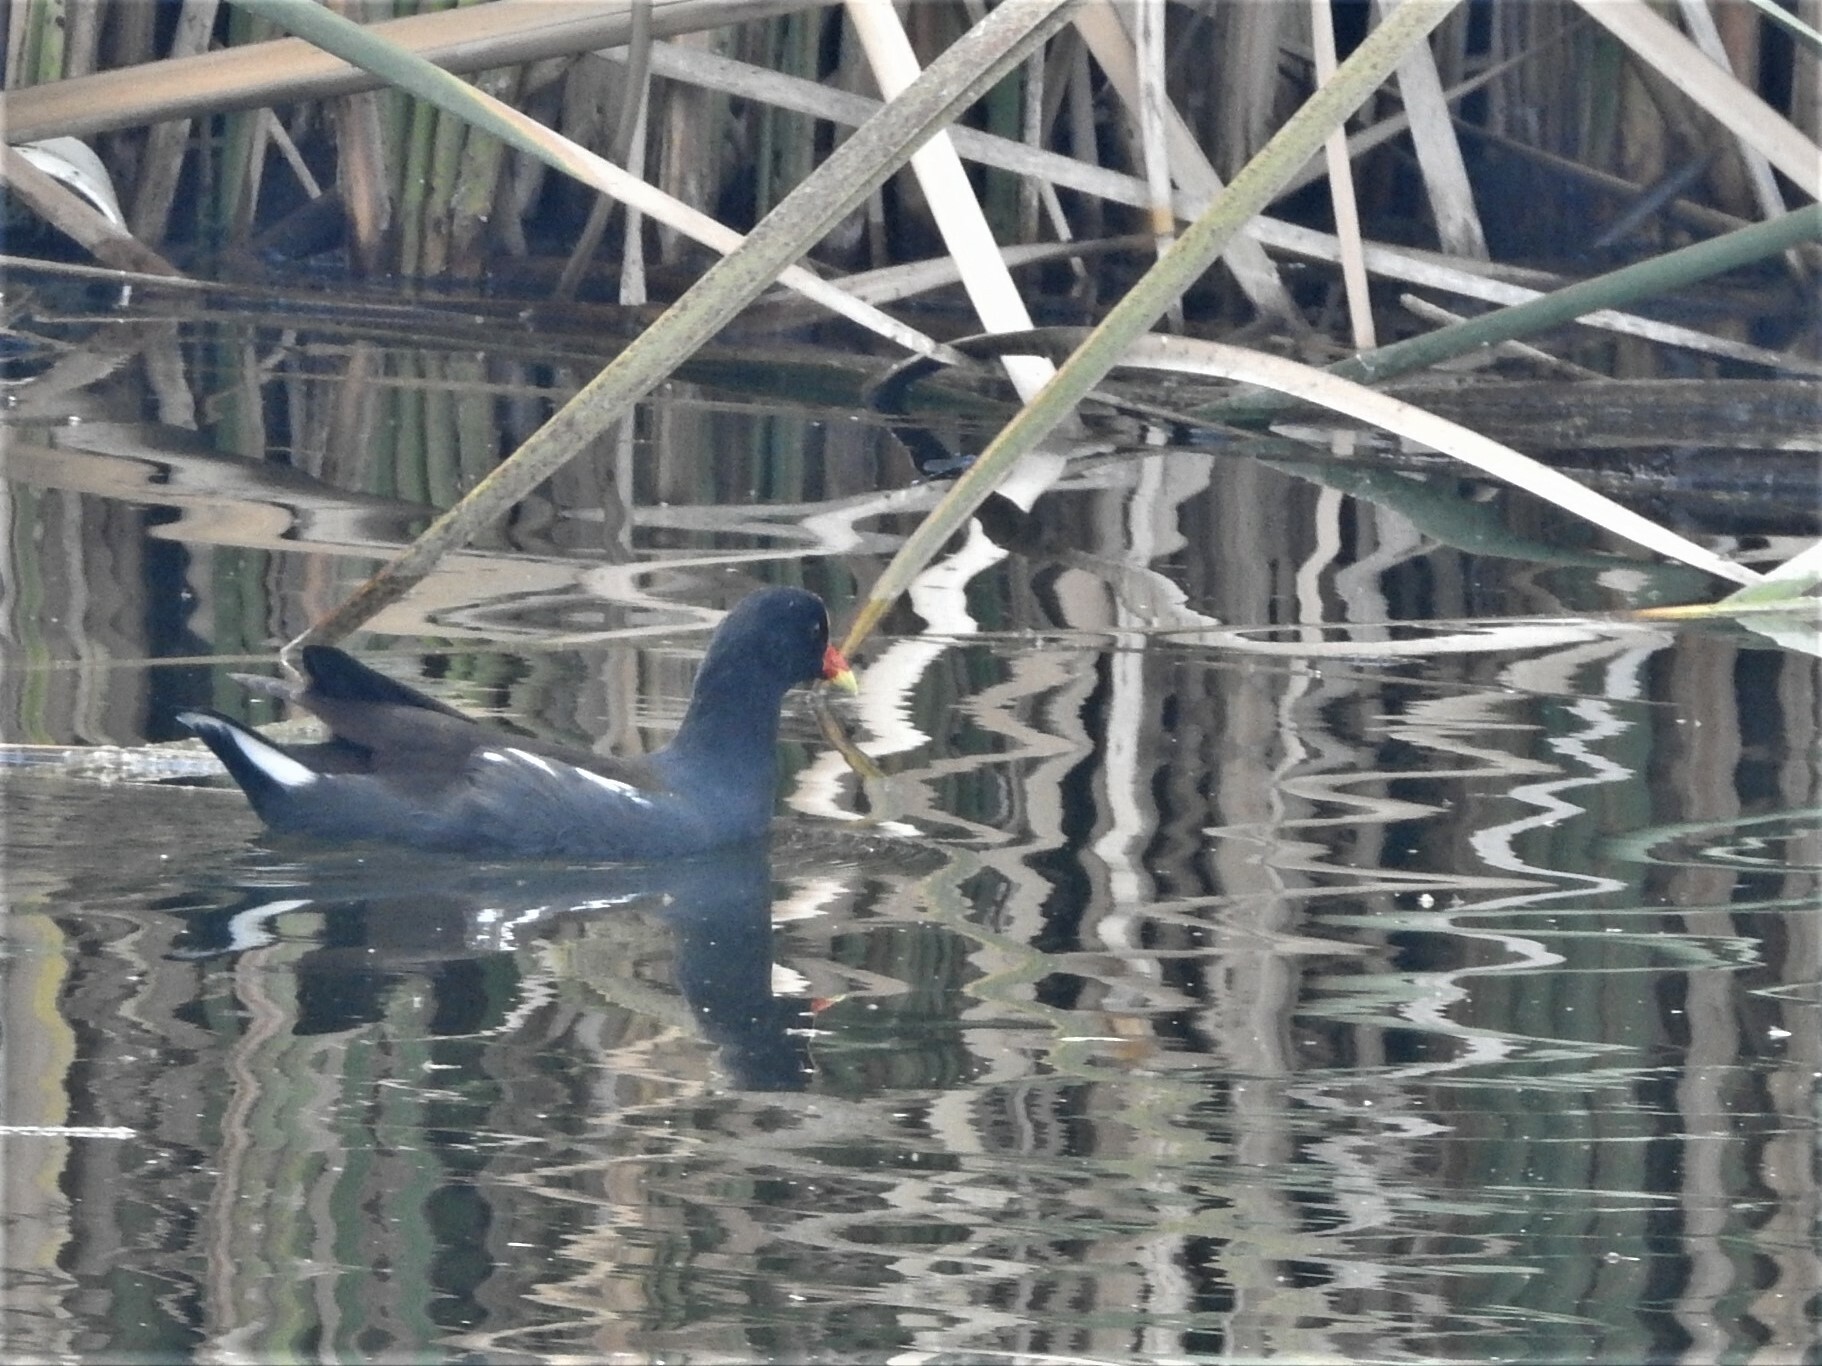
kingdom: Animalia
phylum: Chordata
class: Aves
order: Gruiformes
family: Rallidae
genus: Gallinula
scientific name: Gallinula chloropus
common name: Common moorhen
